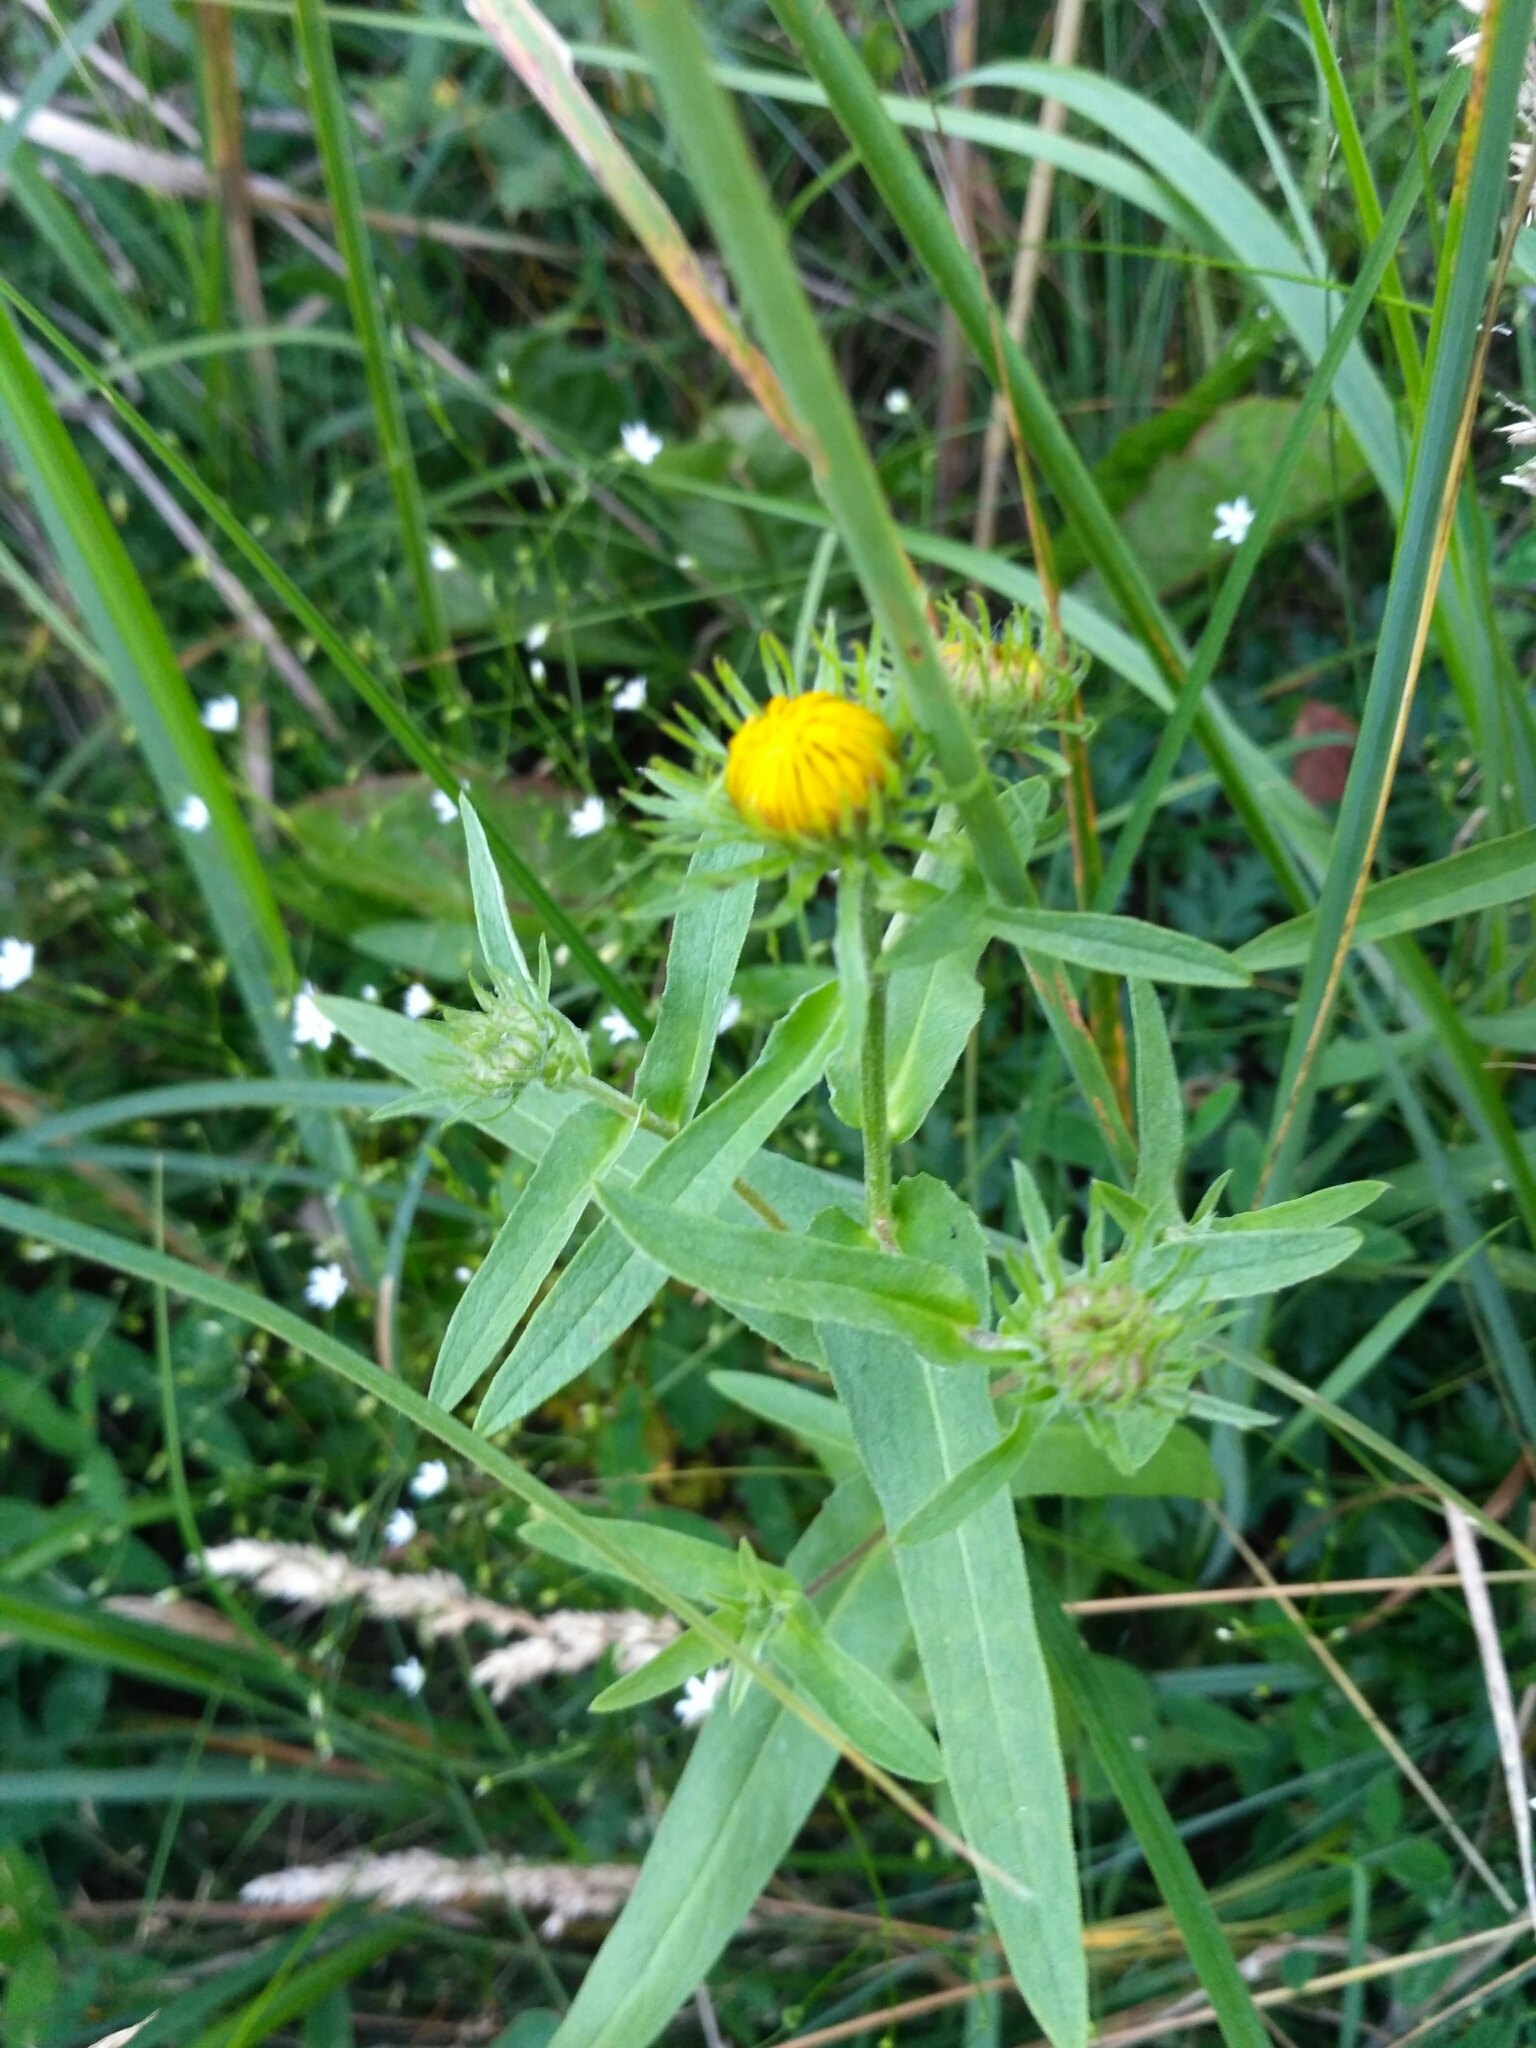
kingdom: Plantae
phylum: Tracheophyta
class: Magnoliopsida
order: Asterales
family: Asteraceae
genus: Pentanema
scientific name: Pentanema britannicum
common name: British elecampane
